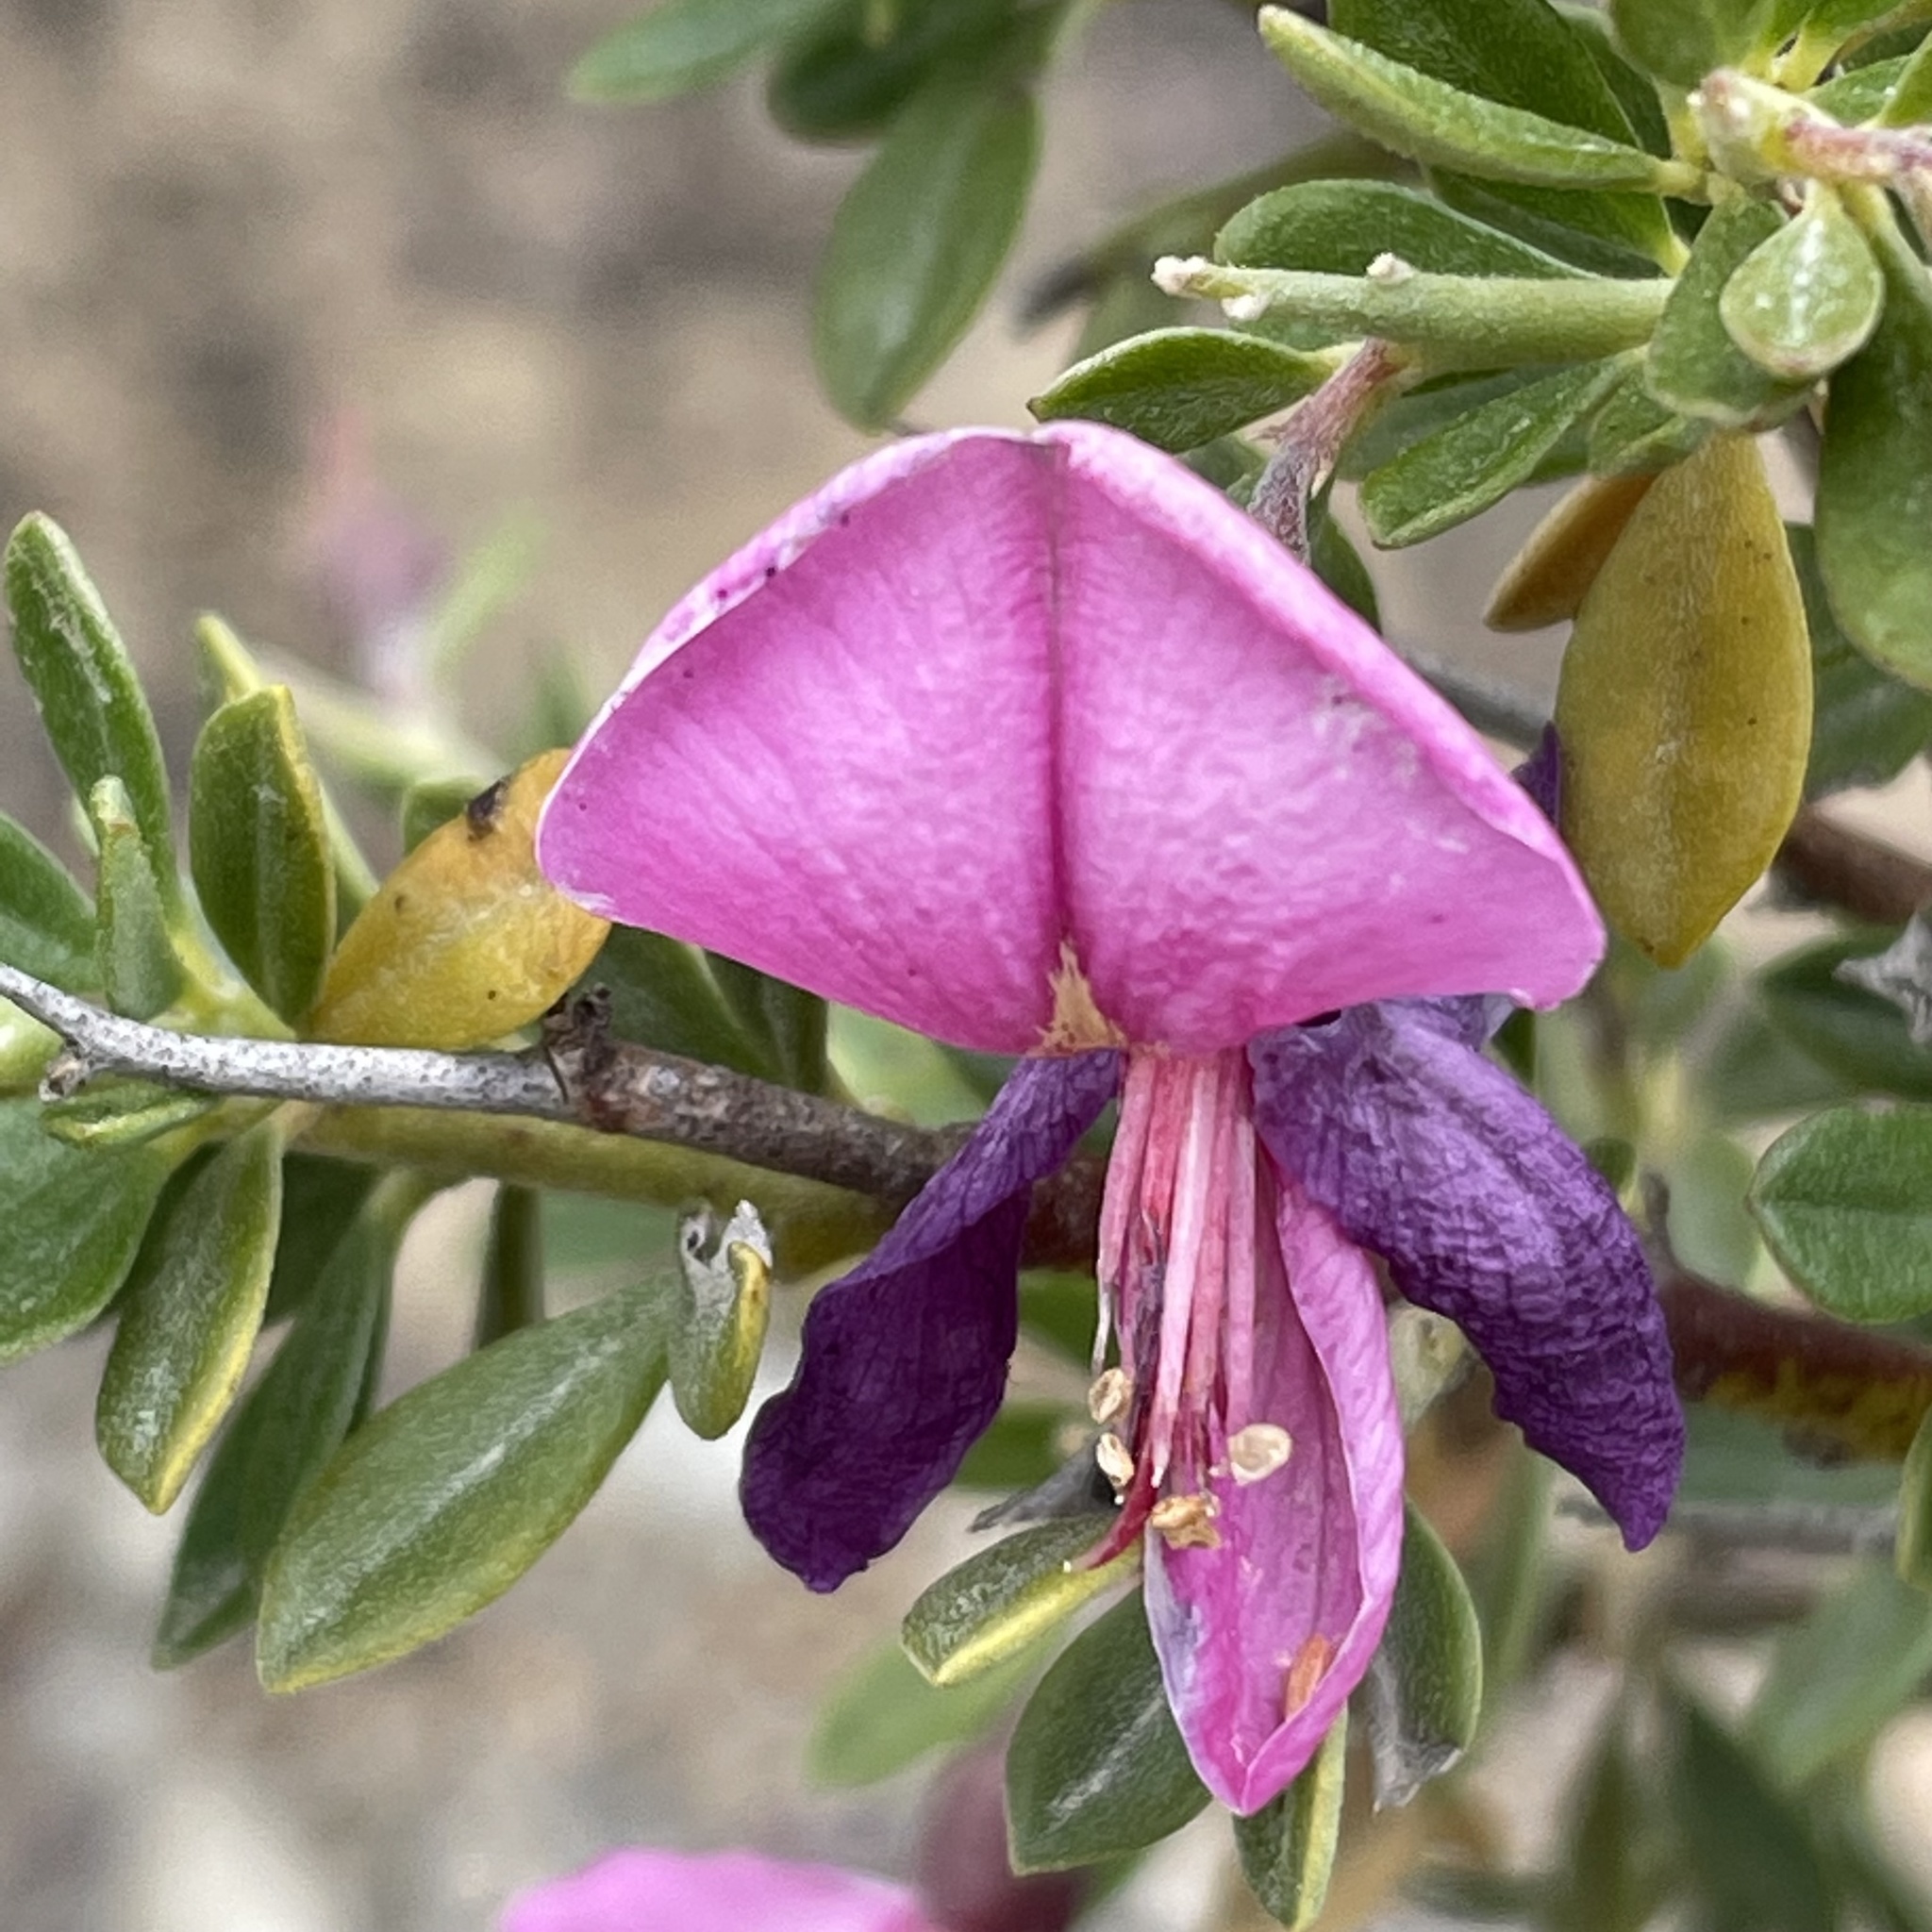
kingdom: Plantae
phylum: Tracheophyta
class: Magnoliopsida
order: Fabales
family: Fabaceae
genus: Pickeringia
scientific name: Pickeringia montana
